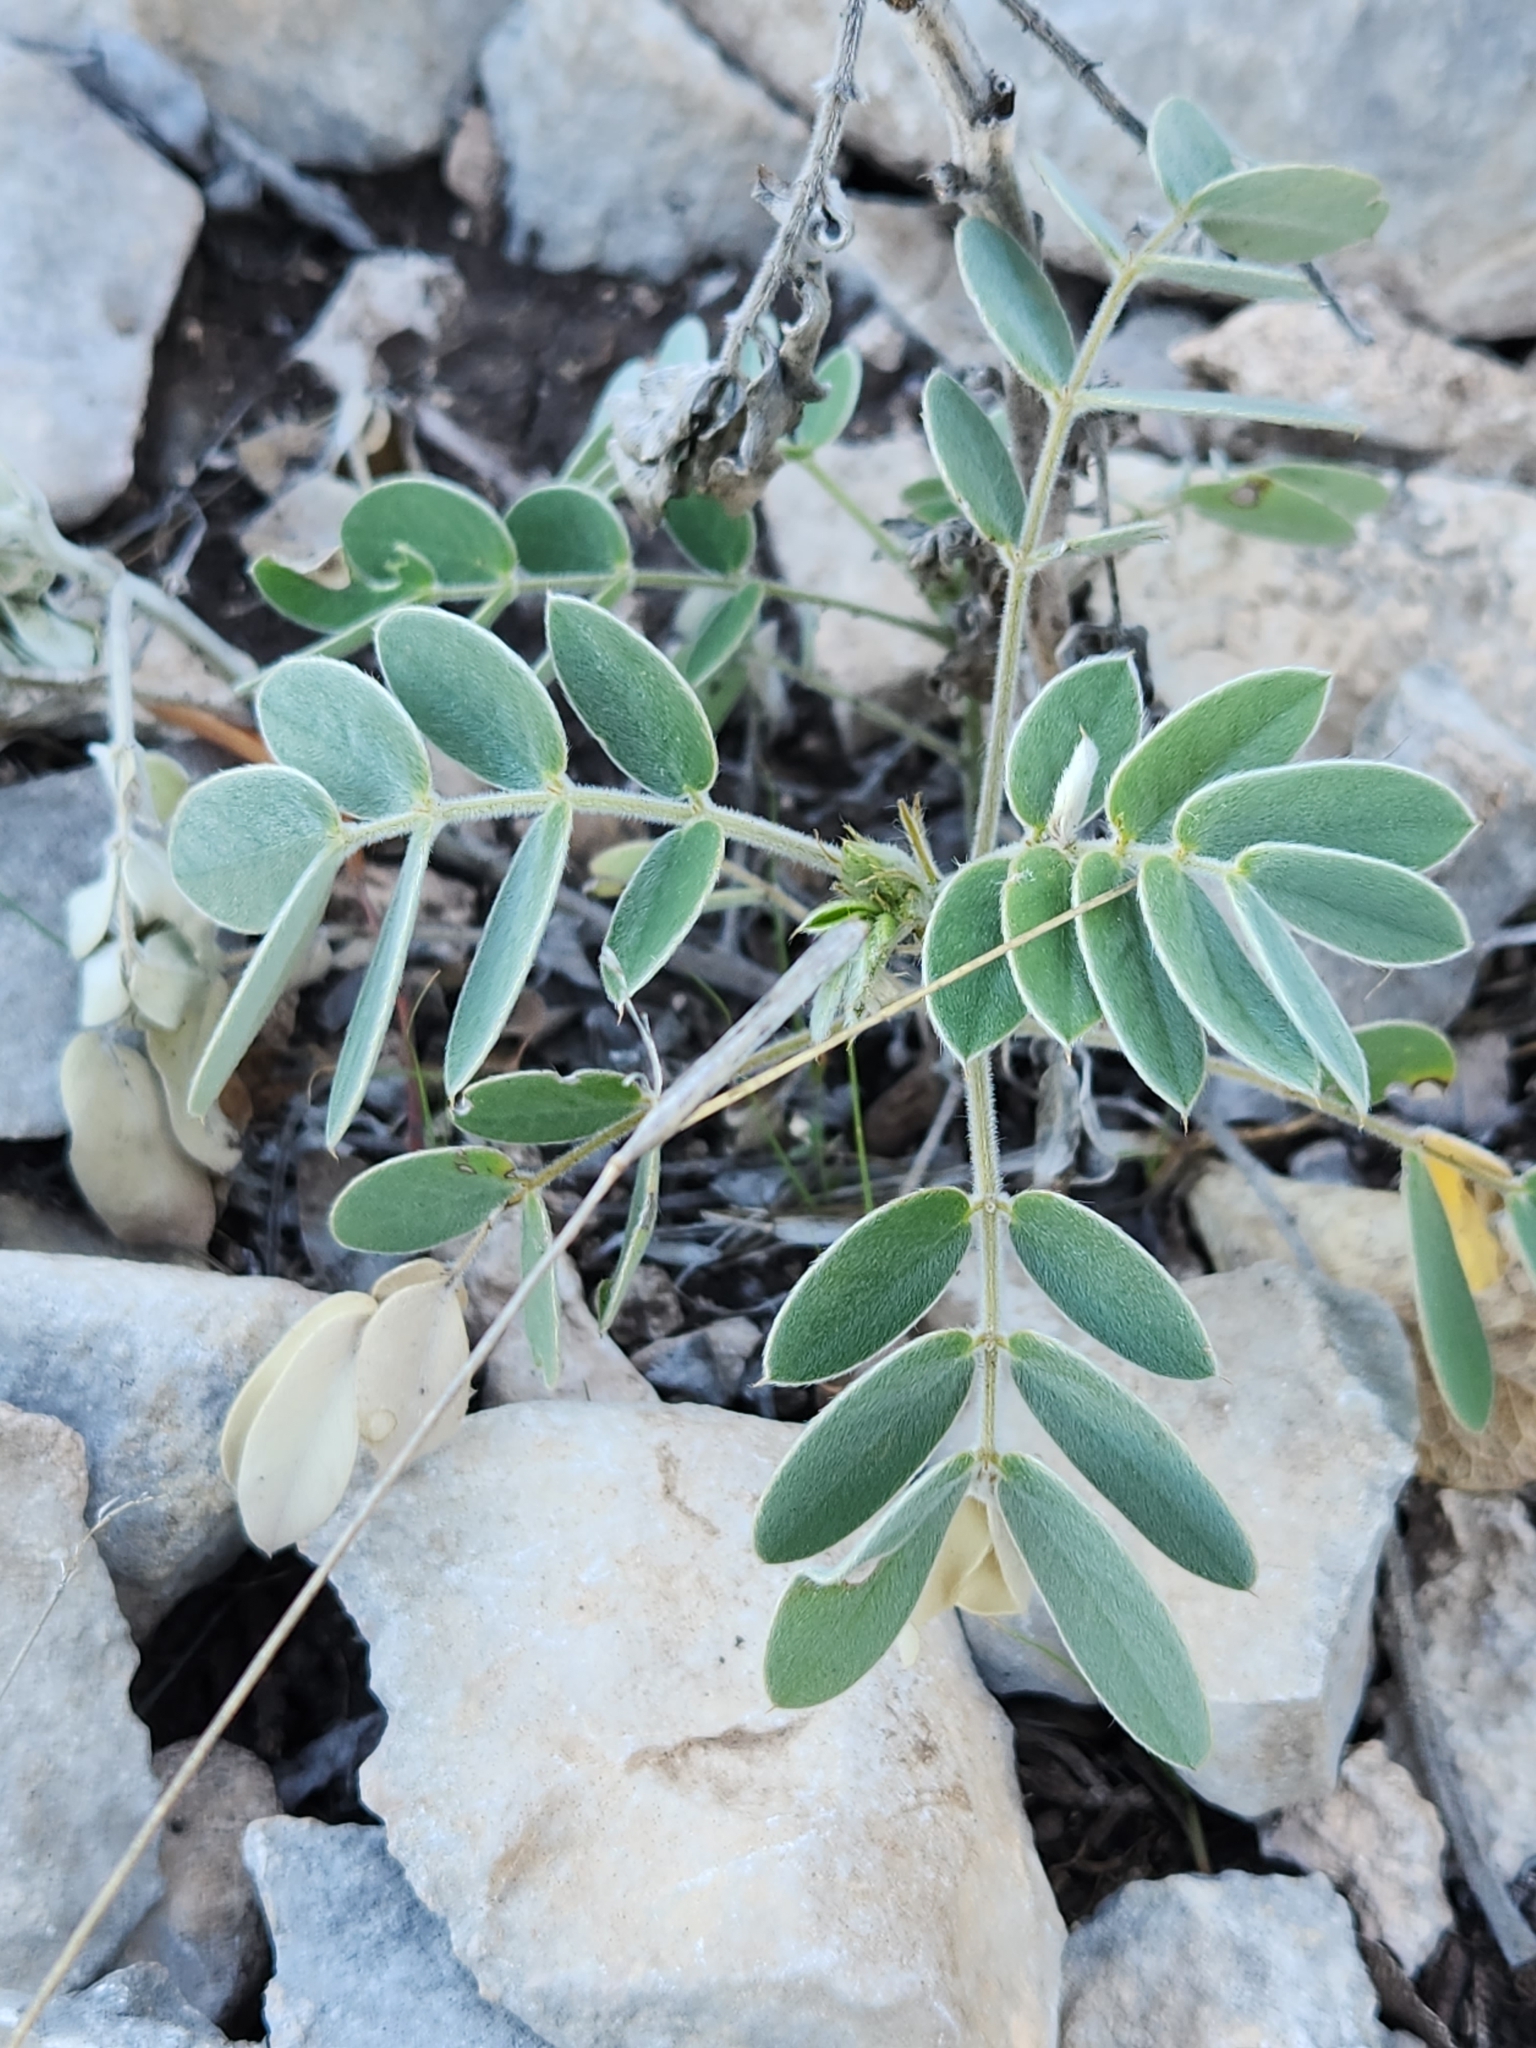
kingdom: Plantae
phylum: Tracheophyta
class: Magnoliopsida
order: Fabales
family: Fabaceae
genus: Senna
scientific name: Senna lindheimeriana
